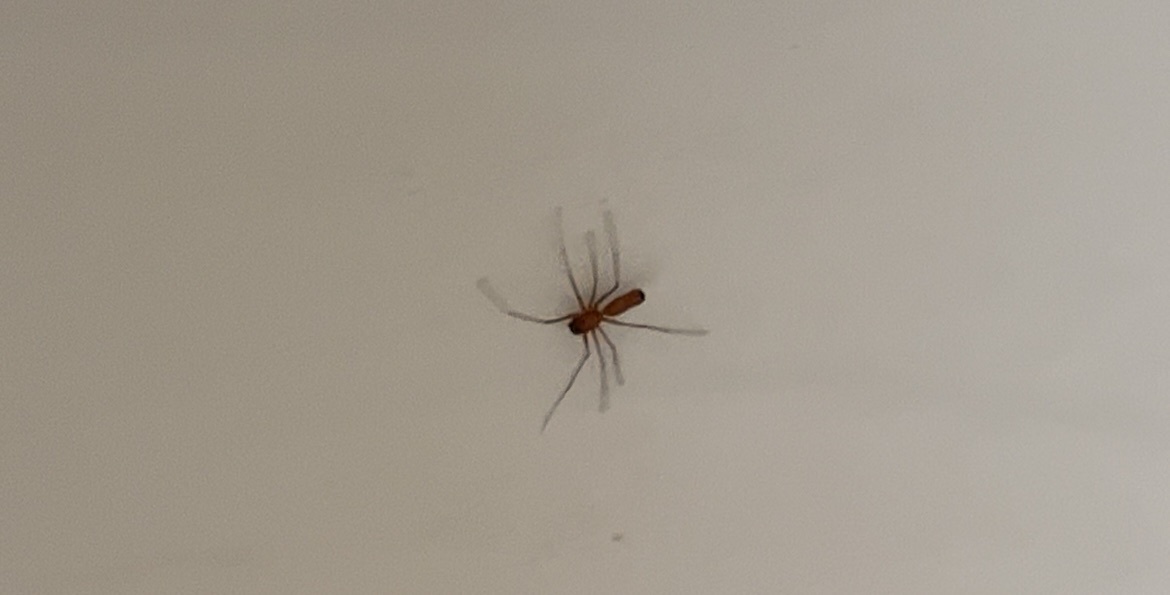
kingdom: Animalia
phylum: Arthropoda
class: Arachnida
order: Araneae
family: Linyphiidae
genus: Florinda
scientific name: Florinda coccinea
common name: Black-tailed red sheetweaver
